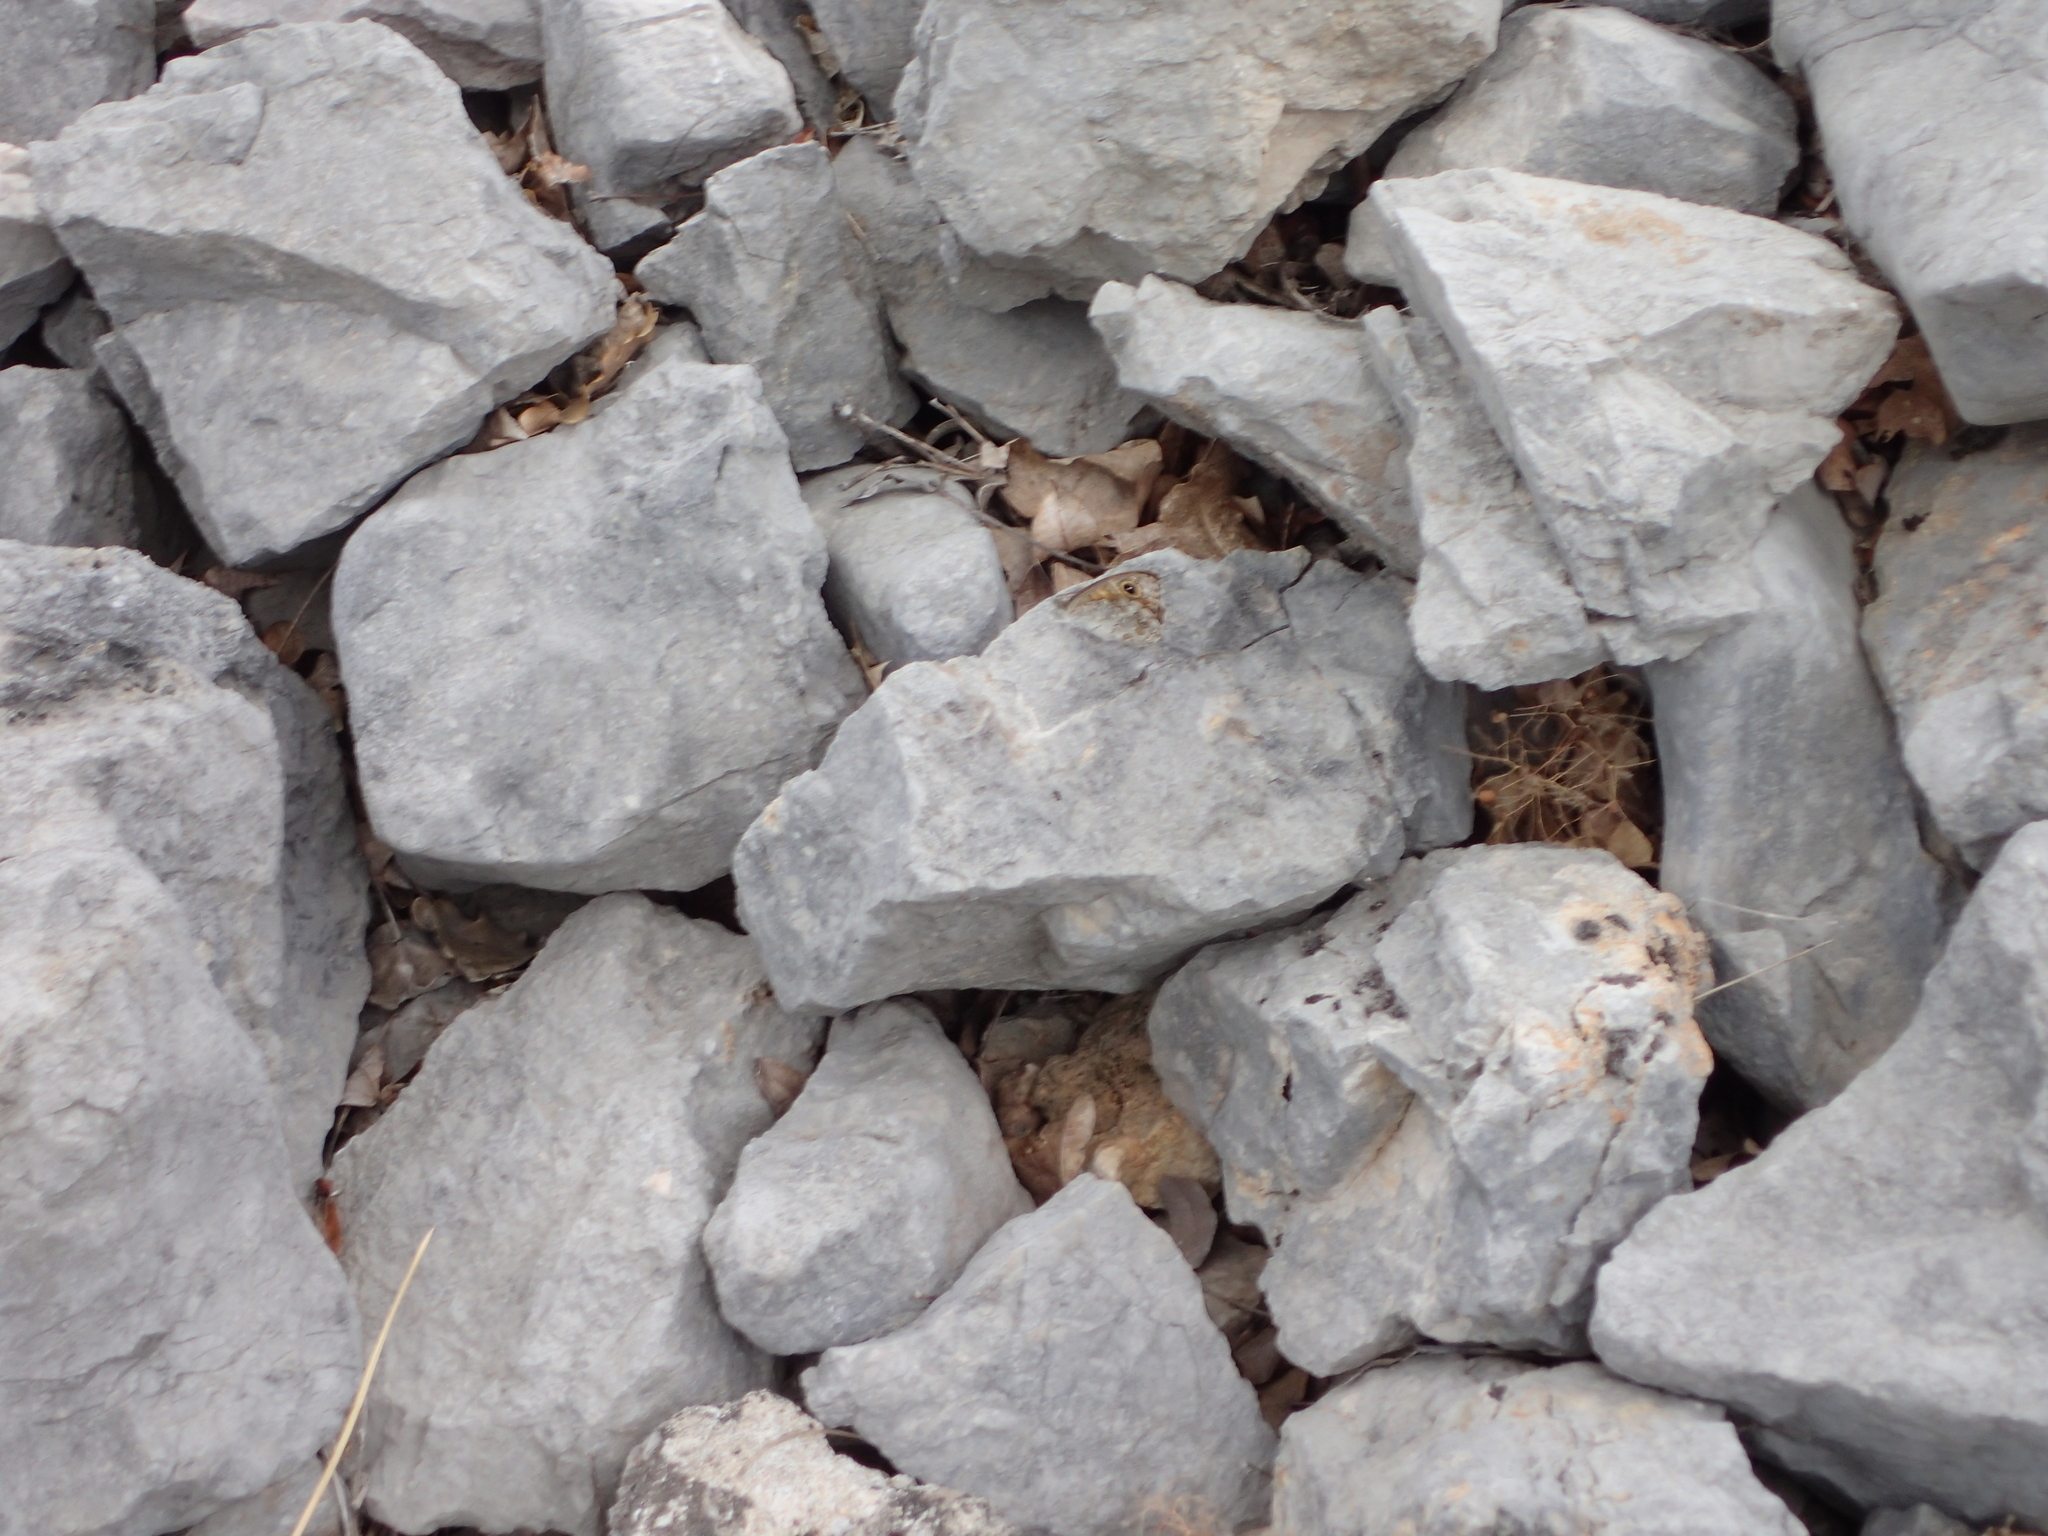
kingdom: Animalia
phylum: Arthropoda
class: Insecta
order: Lepidoptera
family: Nymphalidae
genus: Pararge
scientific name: Pararge Lasiommata megera
